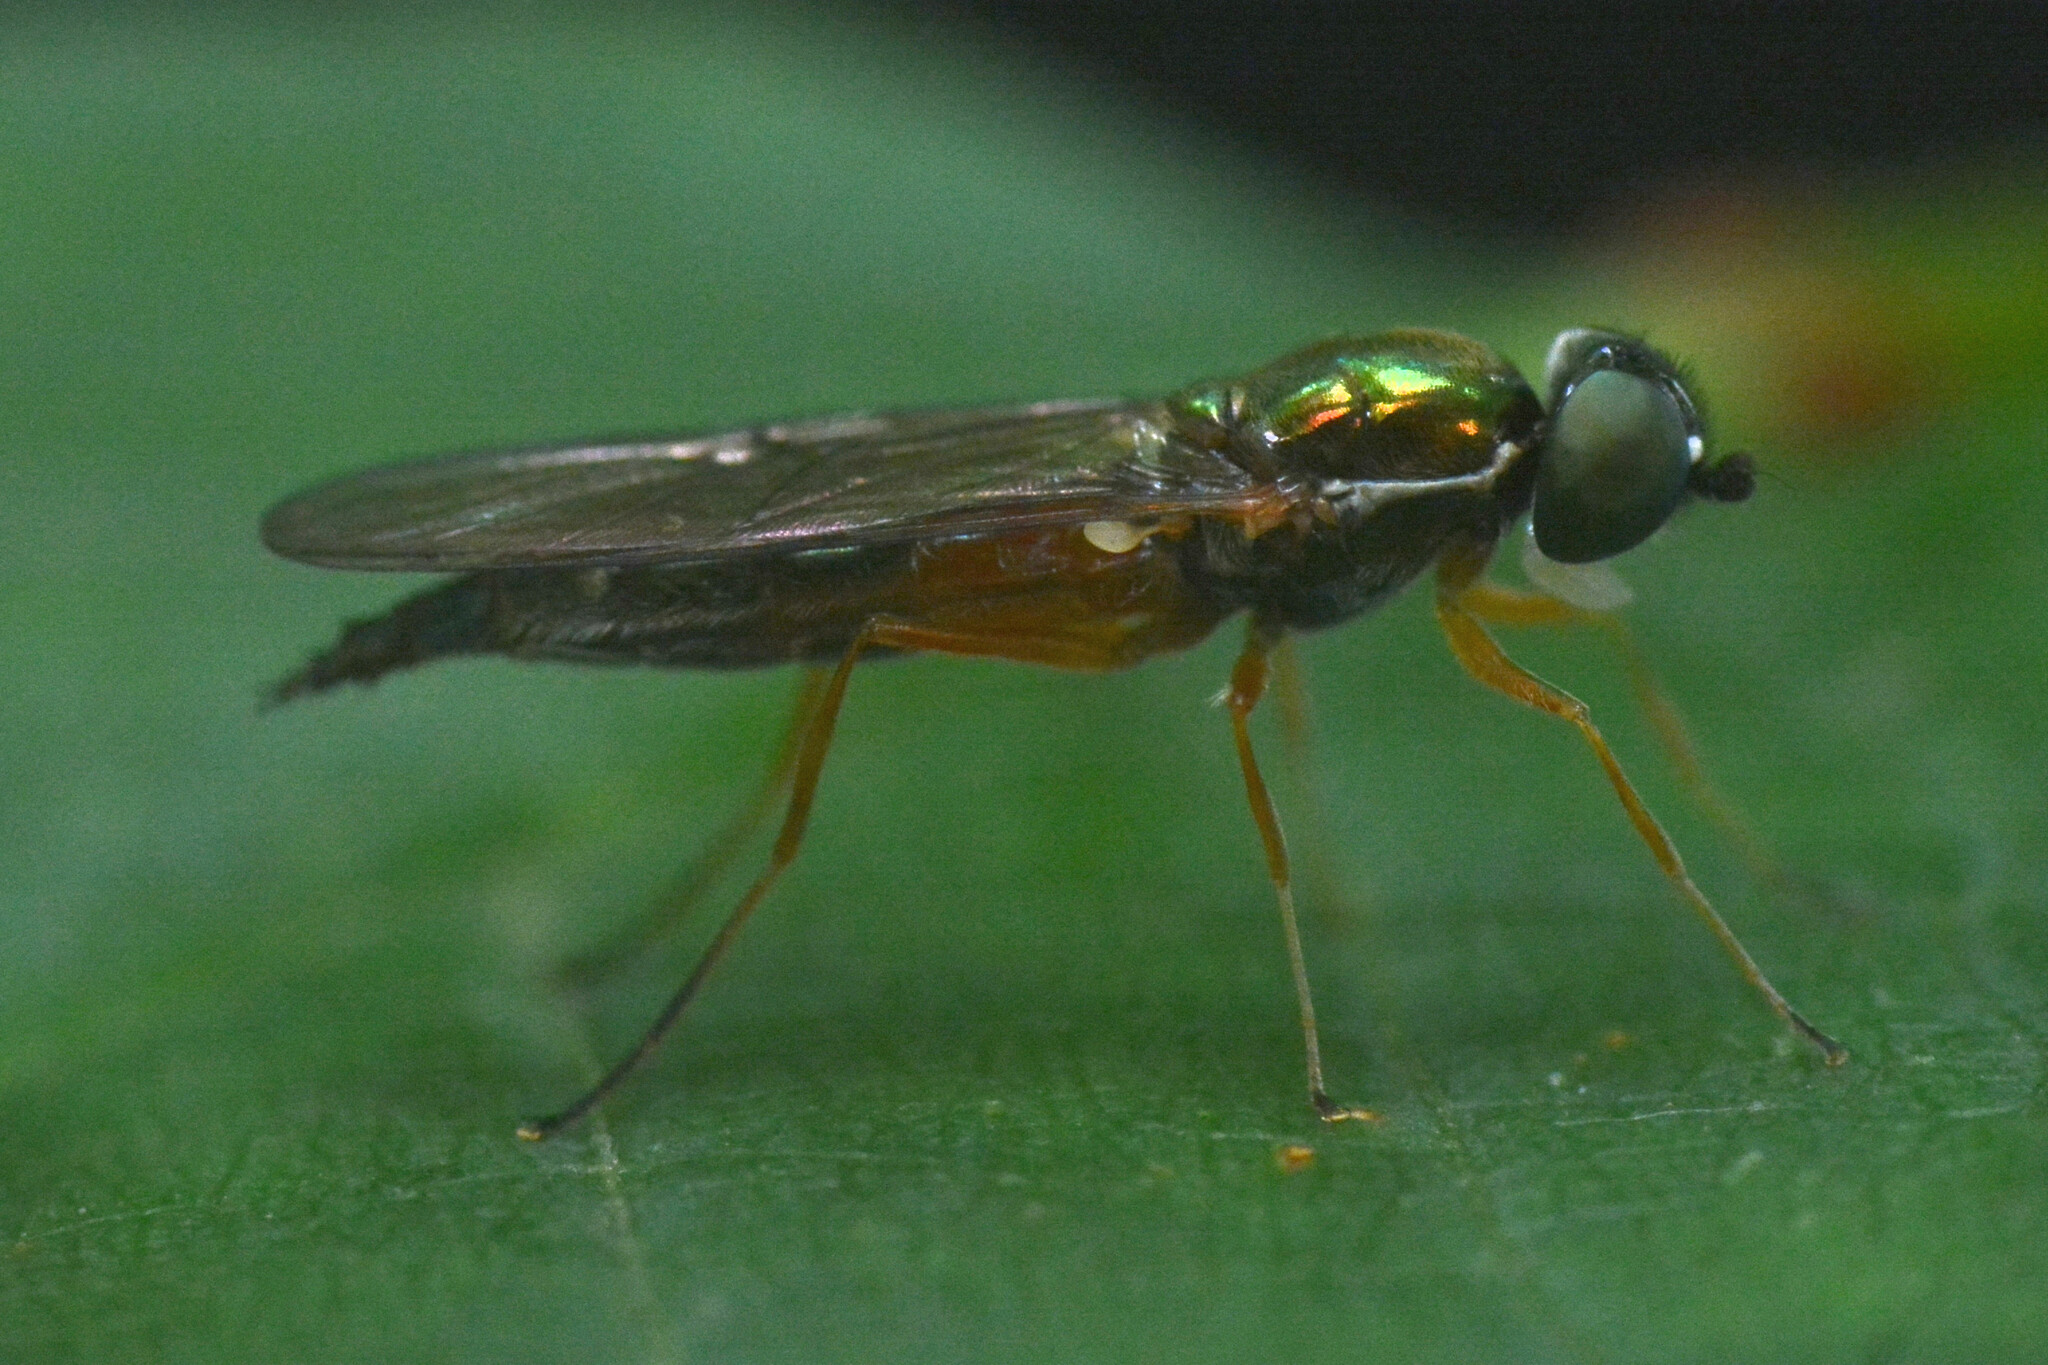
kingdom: Animalia
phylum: Arthropoda
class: Insecta
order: Diptera
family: Stratiomyidae
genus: Sargus
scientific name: Sargus bipunctatus
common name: Twin-spot centurion
